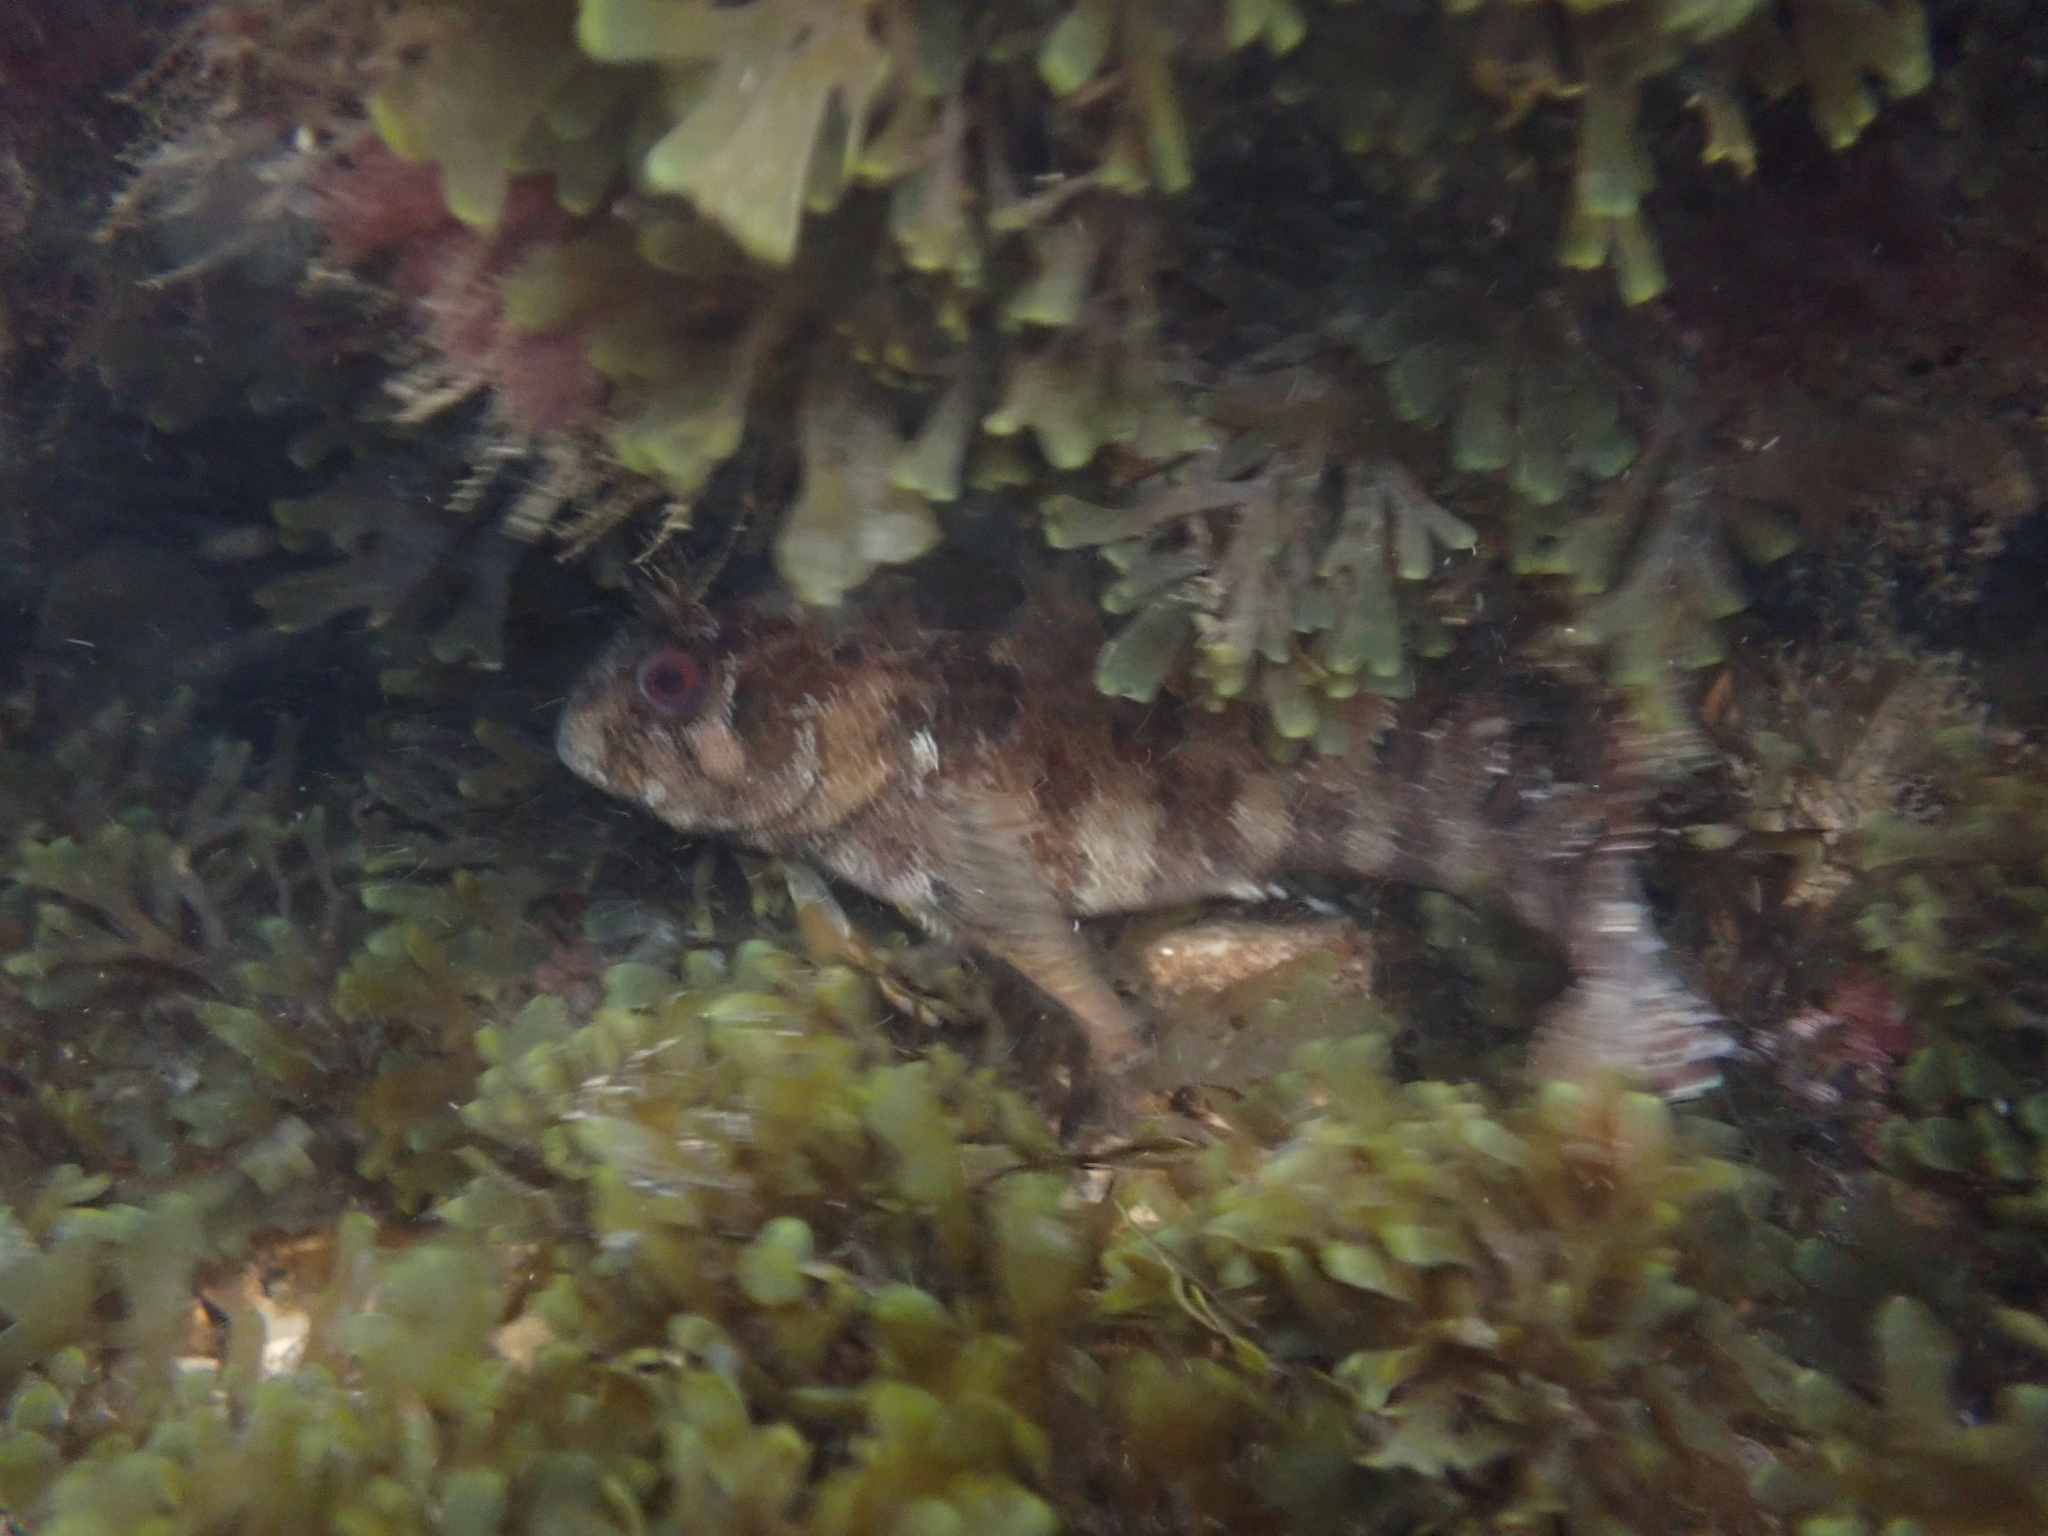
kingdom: Animalia
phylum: Chordata
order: Perciformes
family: Blenniidae
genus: Parablennius
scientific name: Parablennius gattorugine
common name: Tompot blenny
